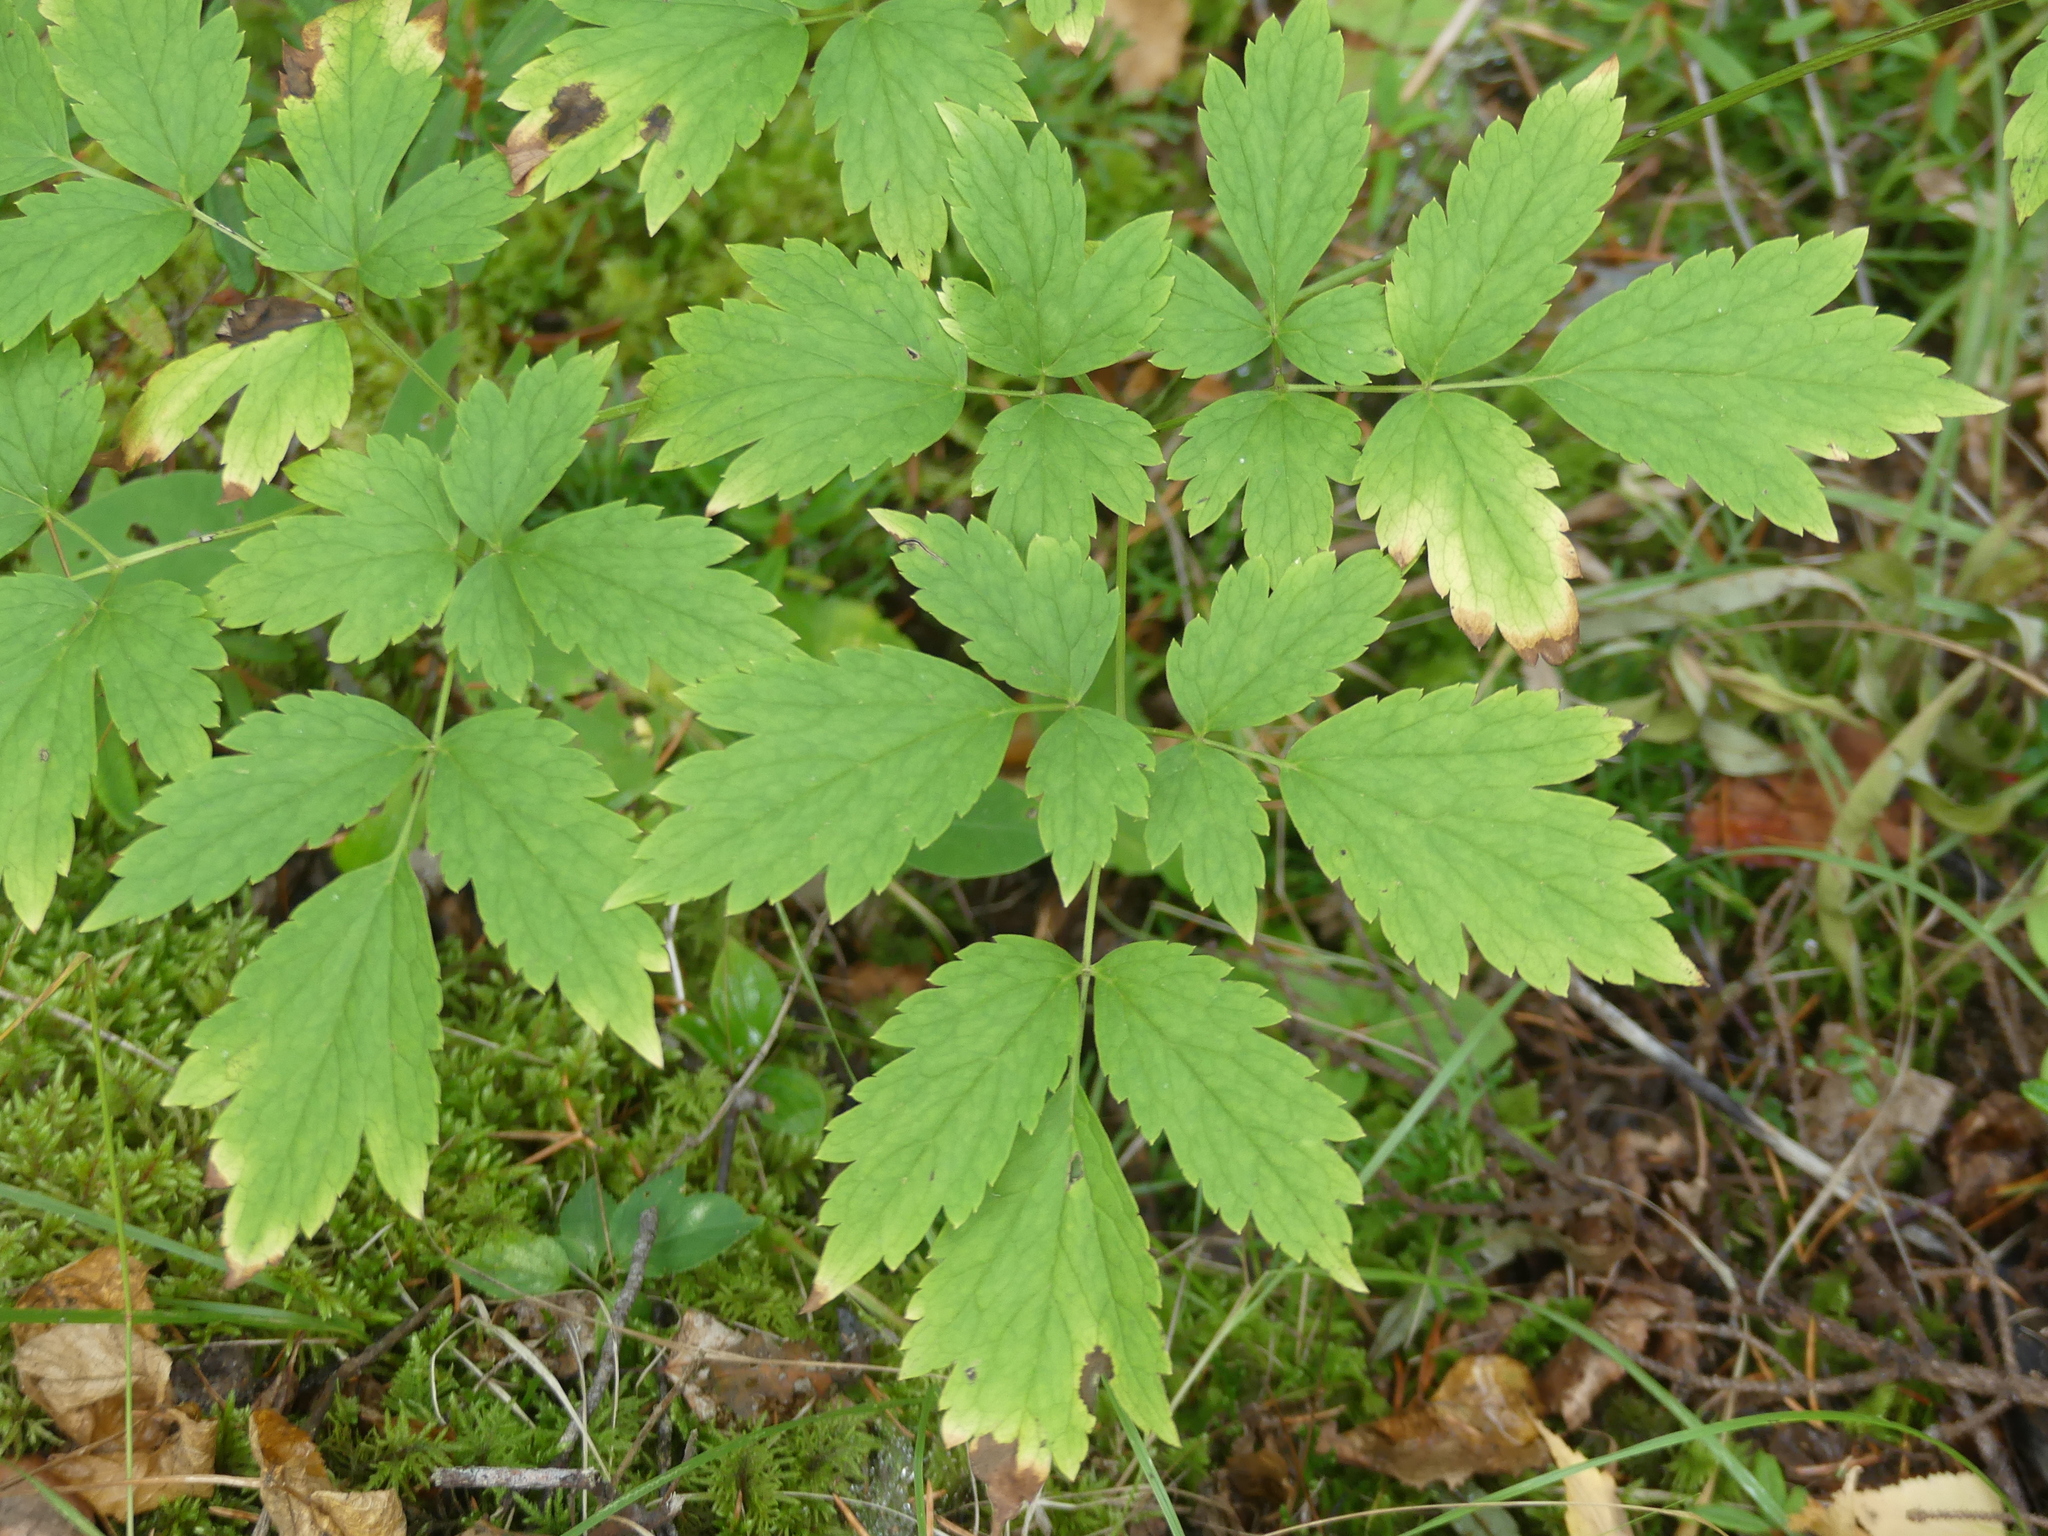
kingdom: Plantae
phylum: Tracheophyta
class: Magnoliopsida
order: Ranunculales
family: Ranunculaceae
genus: Actaea
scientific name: Actaea rubra
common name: Red baneberry
